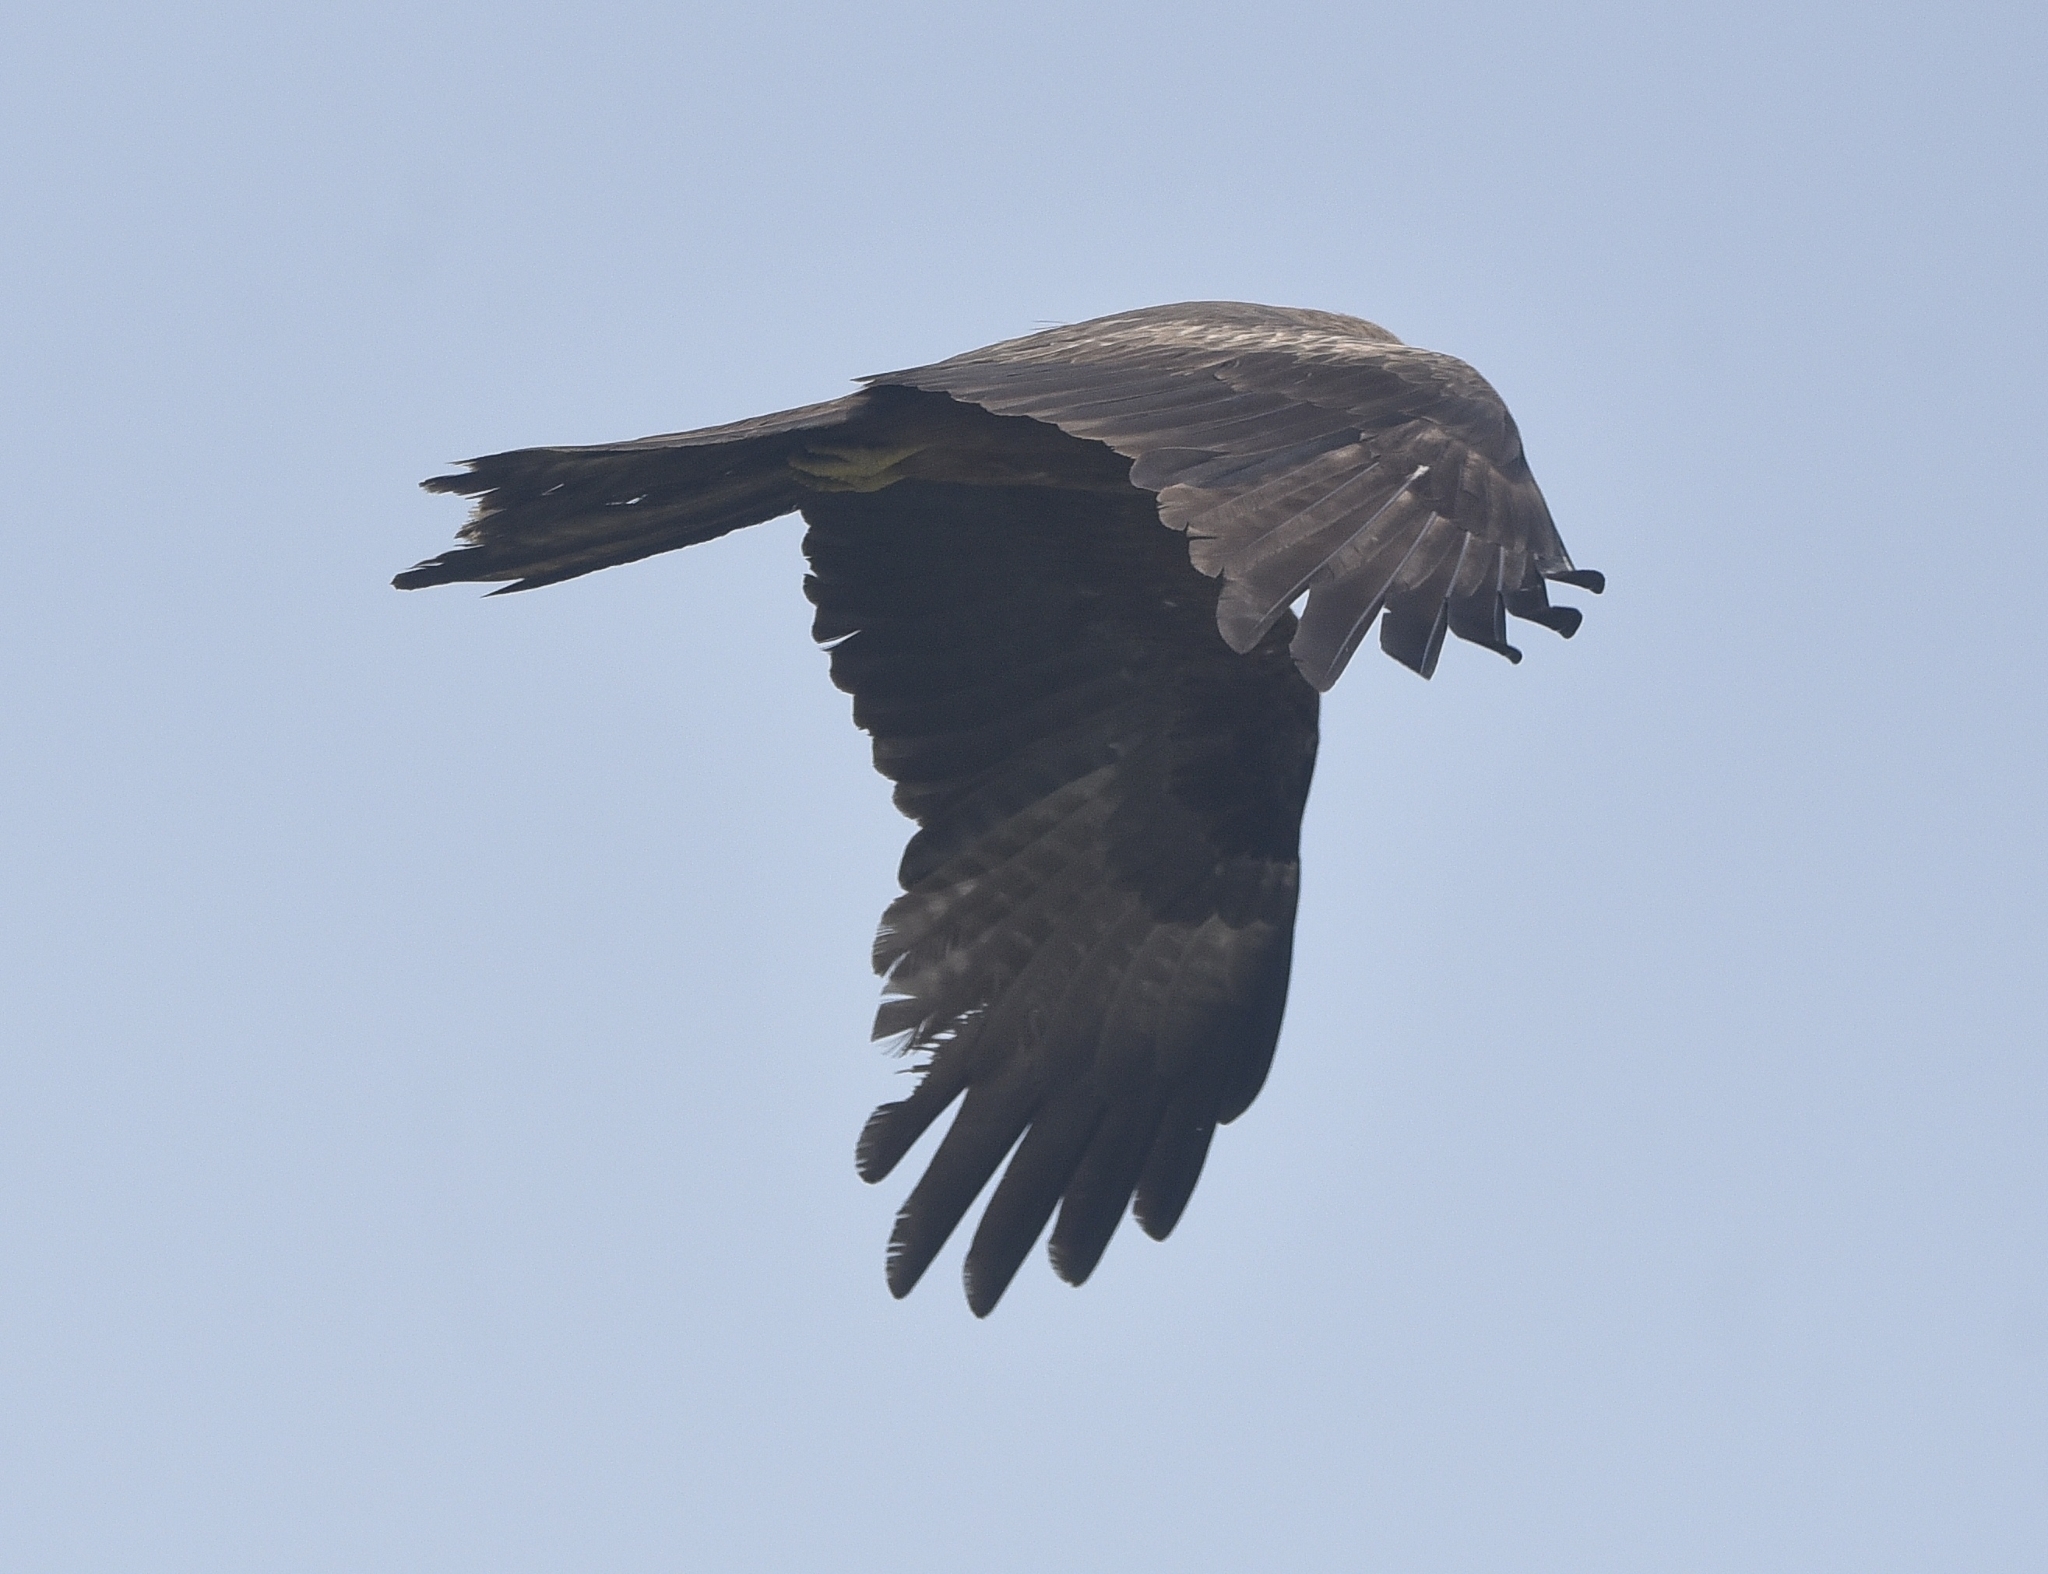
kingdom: Animalia
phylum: Chordata
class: Aves
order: Accipitriformes
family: Accipitridae
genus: Milvus
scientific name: Milvus migrans
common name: Black kite
